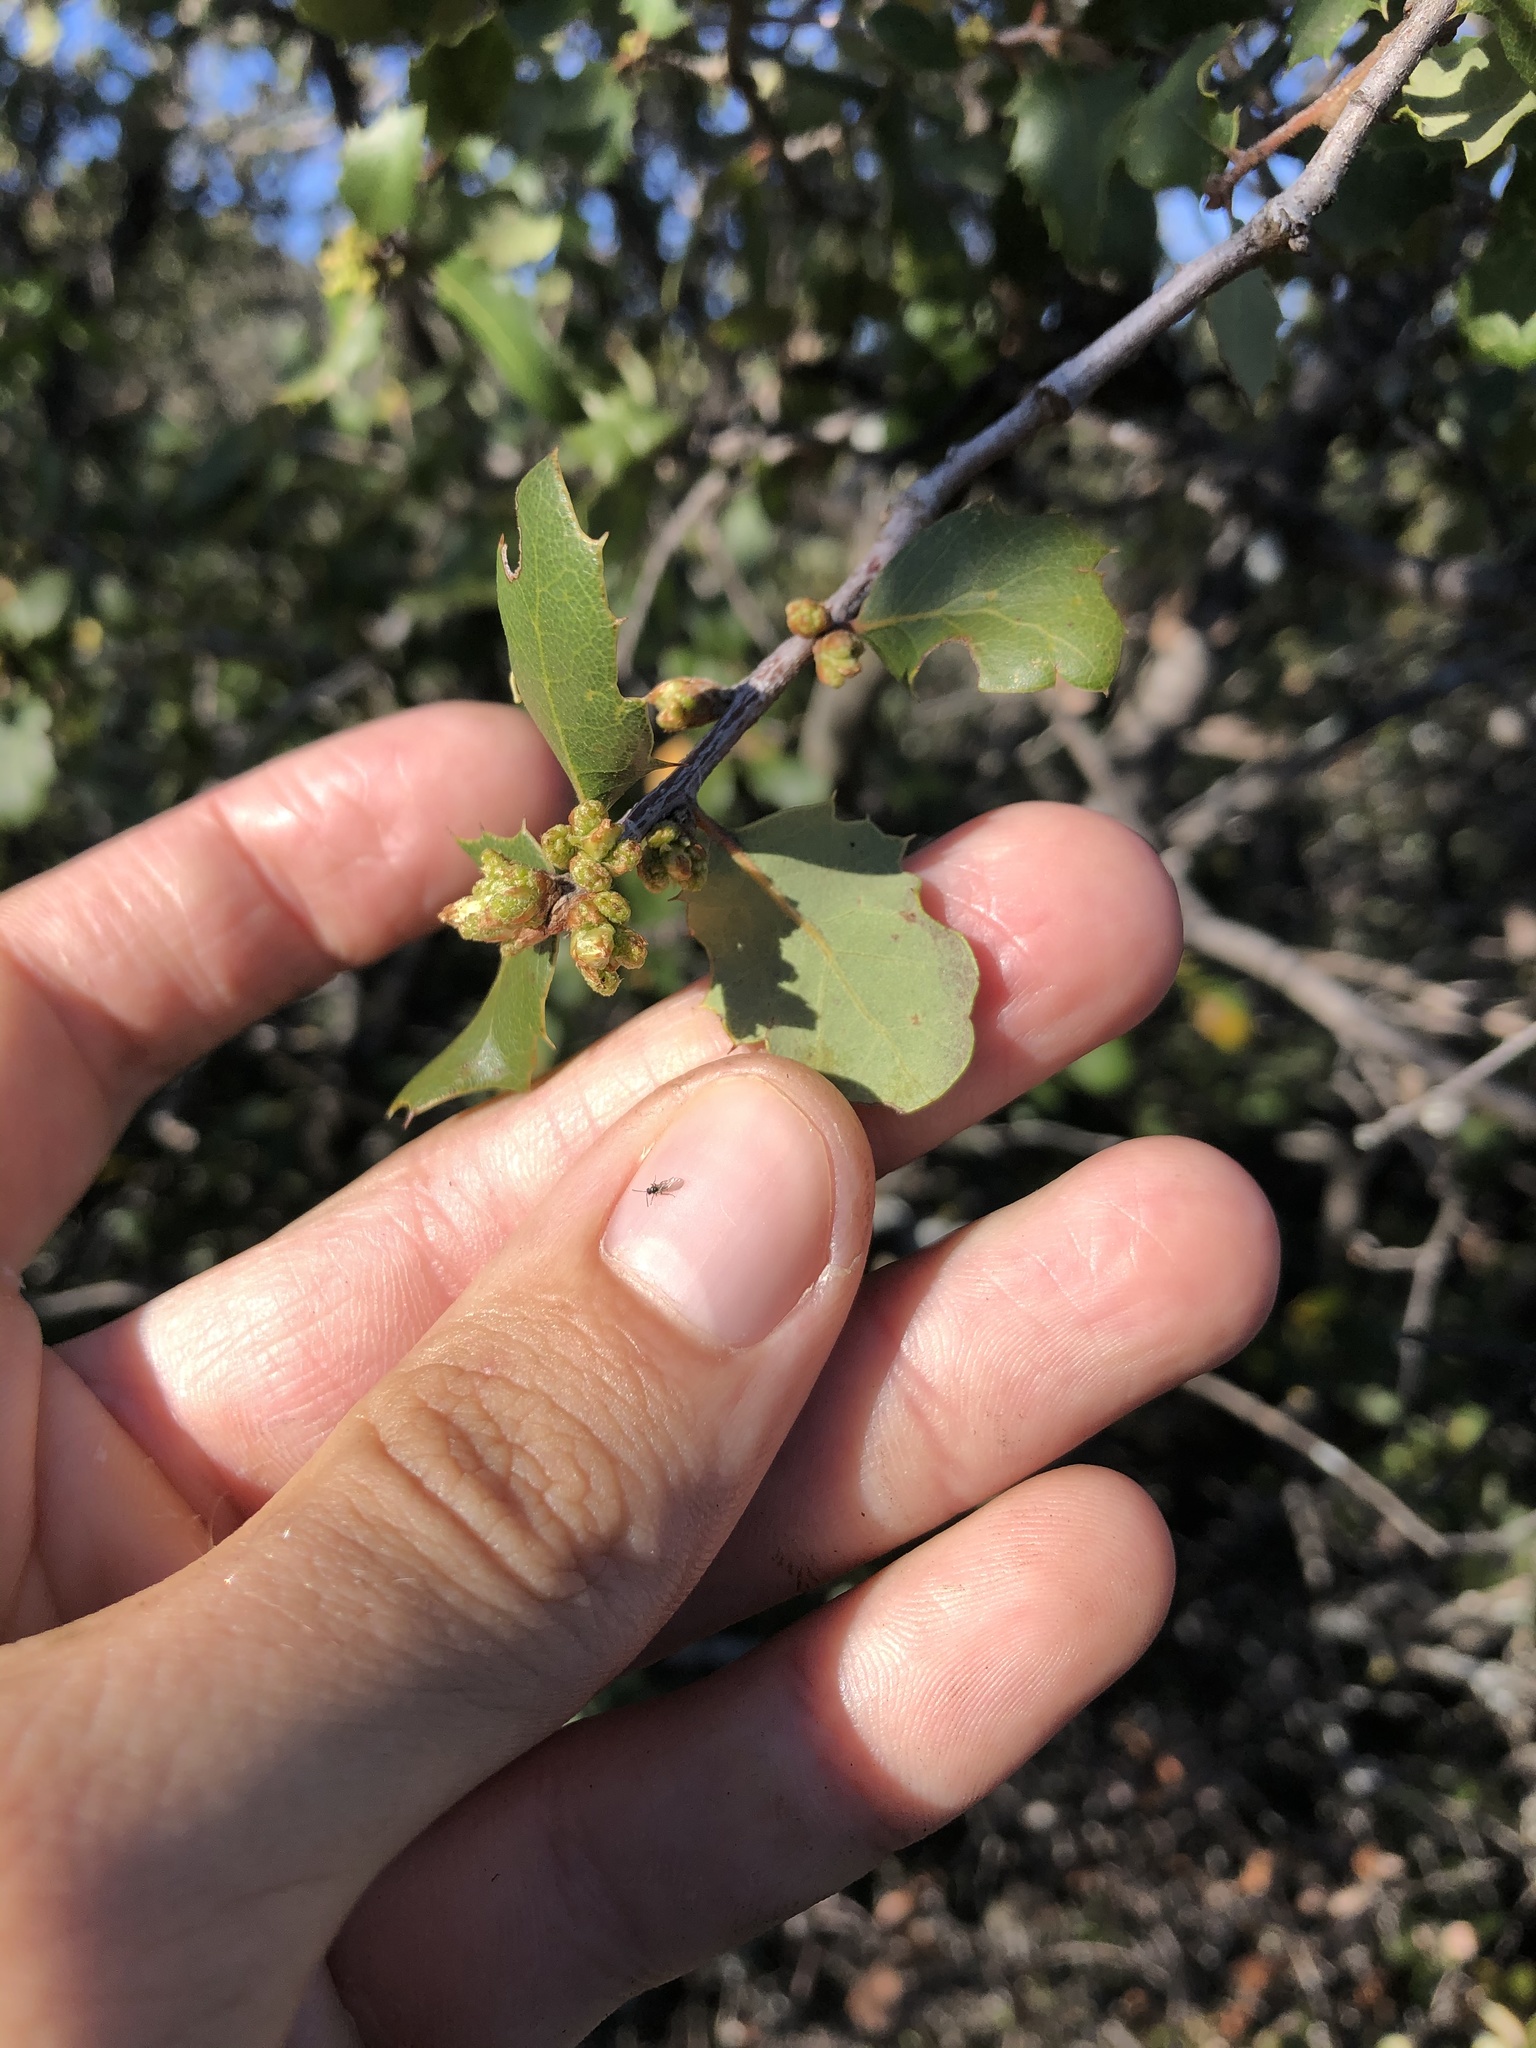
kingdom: Plantae
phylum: Tracheophyta
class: Magnoliopsida
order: Fagales
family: Fagaceae
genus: Quercus
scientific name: Quercus berberidifolia
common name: California scrub oak
